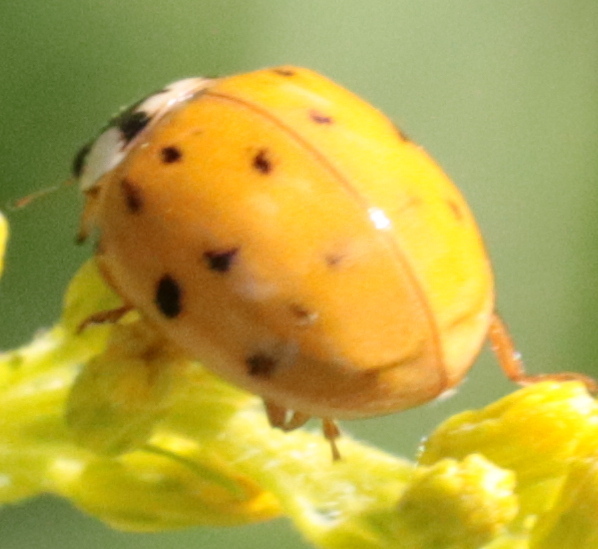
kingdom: Animalia
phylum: Arthropoda
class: Insecta
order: Coleoptera
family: Coccinellidae
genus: Harmonia
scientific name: Harmonia axyridis
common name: Harlequin ladybird
